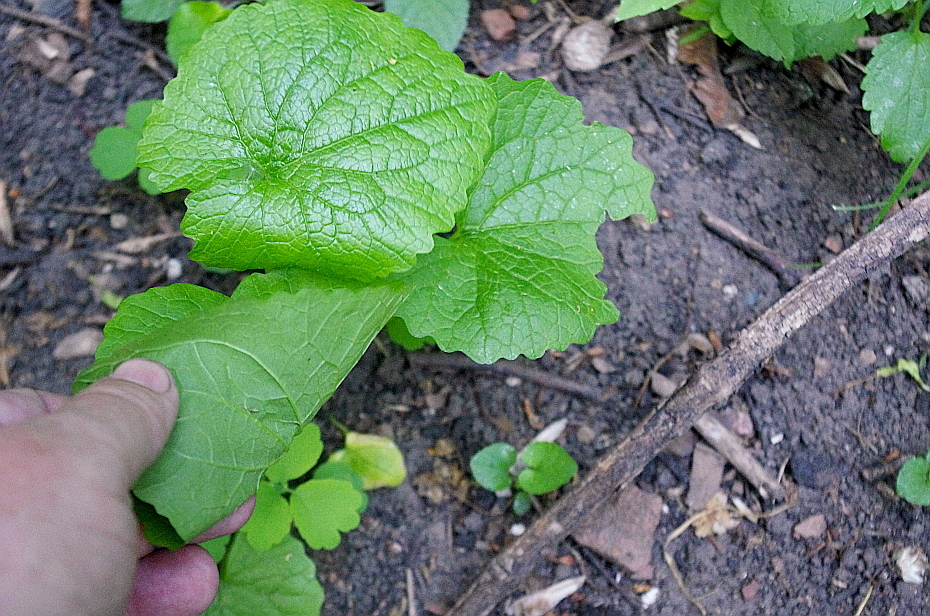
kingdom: Plantae
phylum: Tracheophyta
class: Magnoliopsida
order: Brassicales
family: Brassicaceae
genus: Alliaria
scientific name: Alliaria petiolata
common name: Garlic mustard
